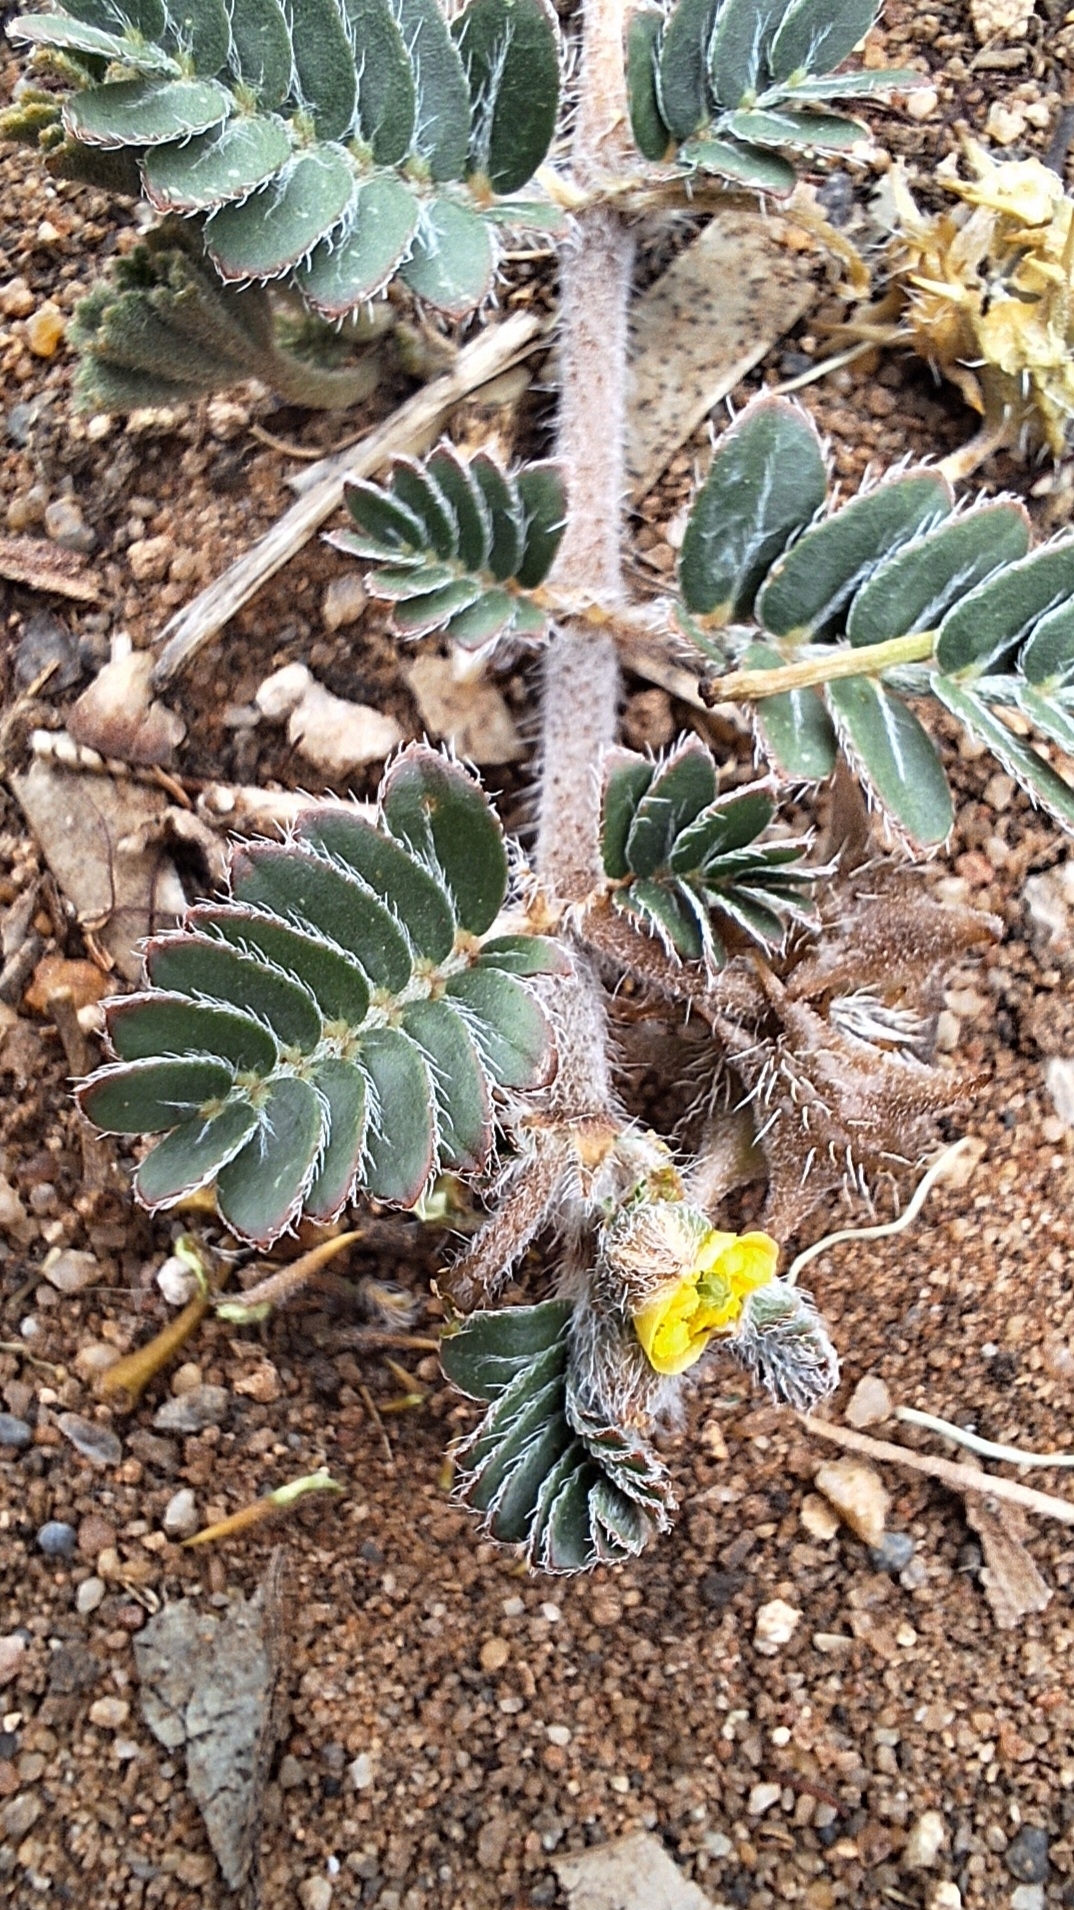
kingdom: Plantae
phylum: Tracheophyta
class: Magnoliopsida
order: Zygophyllales
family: Zygophyllaceae
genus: Tribulus
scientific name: Tribulus terrestris
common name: Puncturevine
